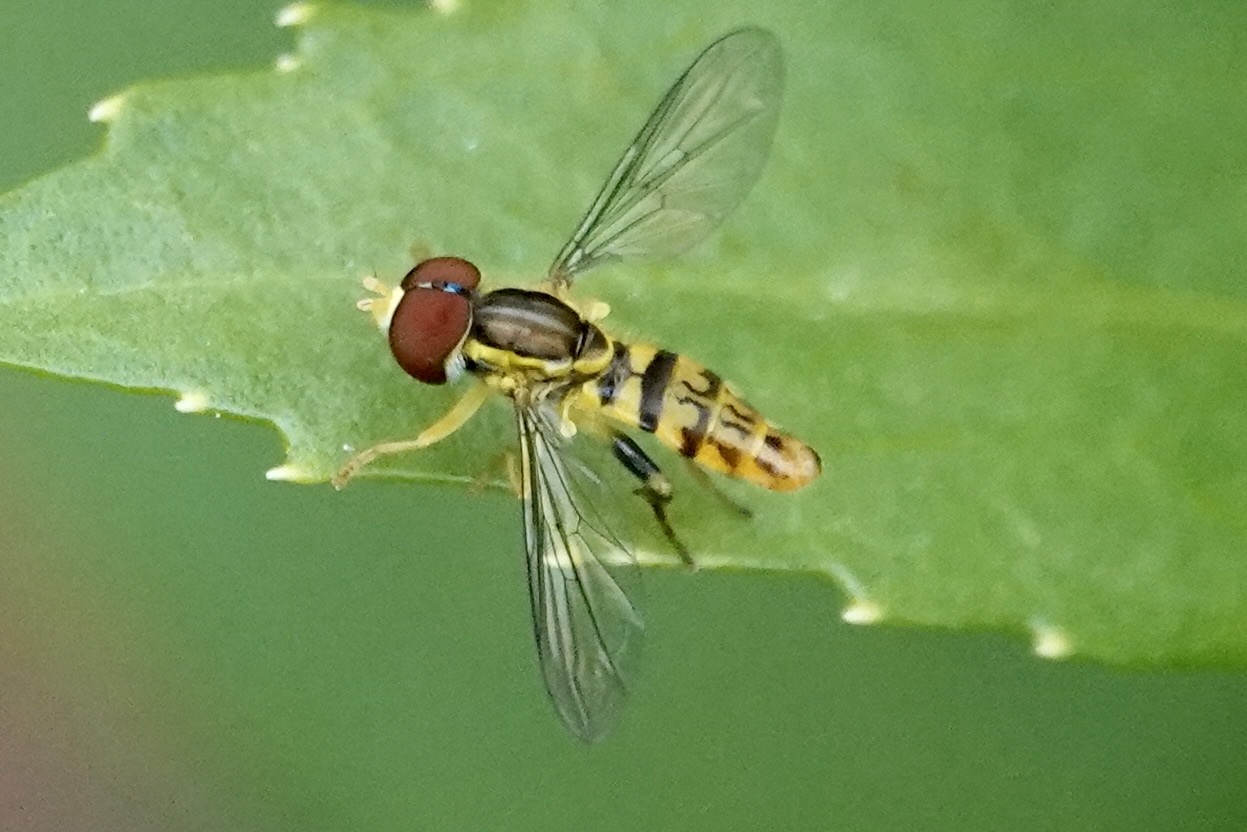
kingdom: Animalia
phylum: Arthropoda
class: Insecta
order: Diptera
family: Syrphidae
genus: Toxomerus
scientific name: Toxomerus geminatus
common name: Eastern calligrapher
